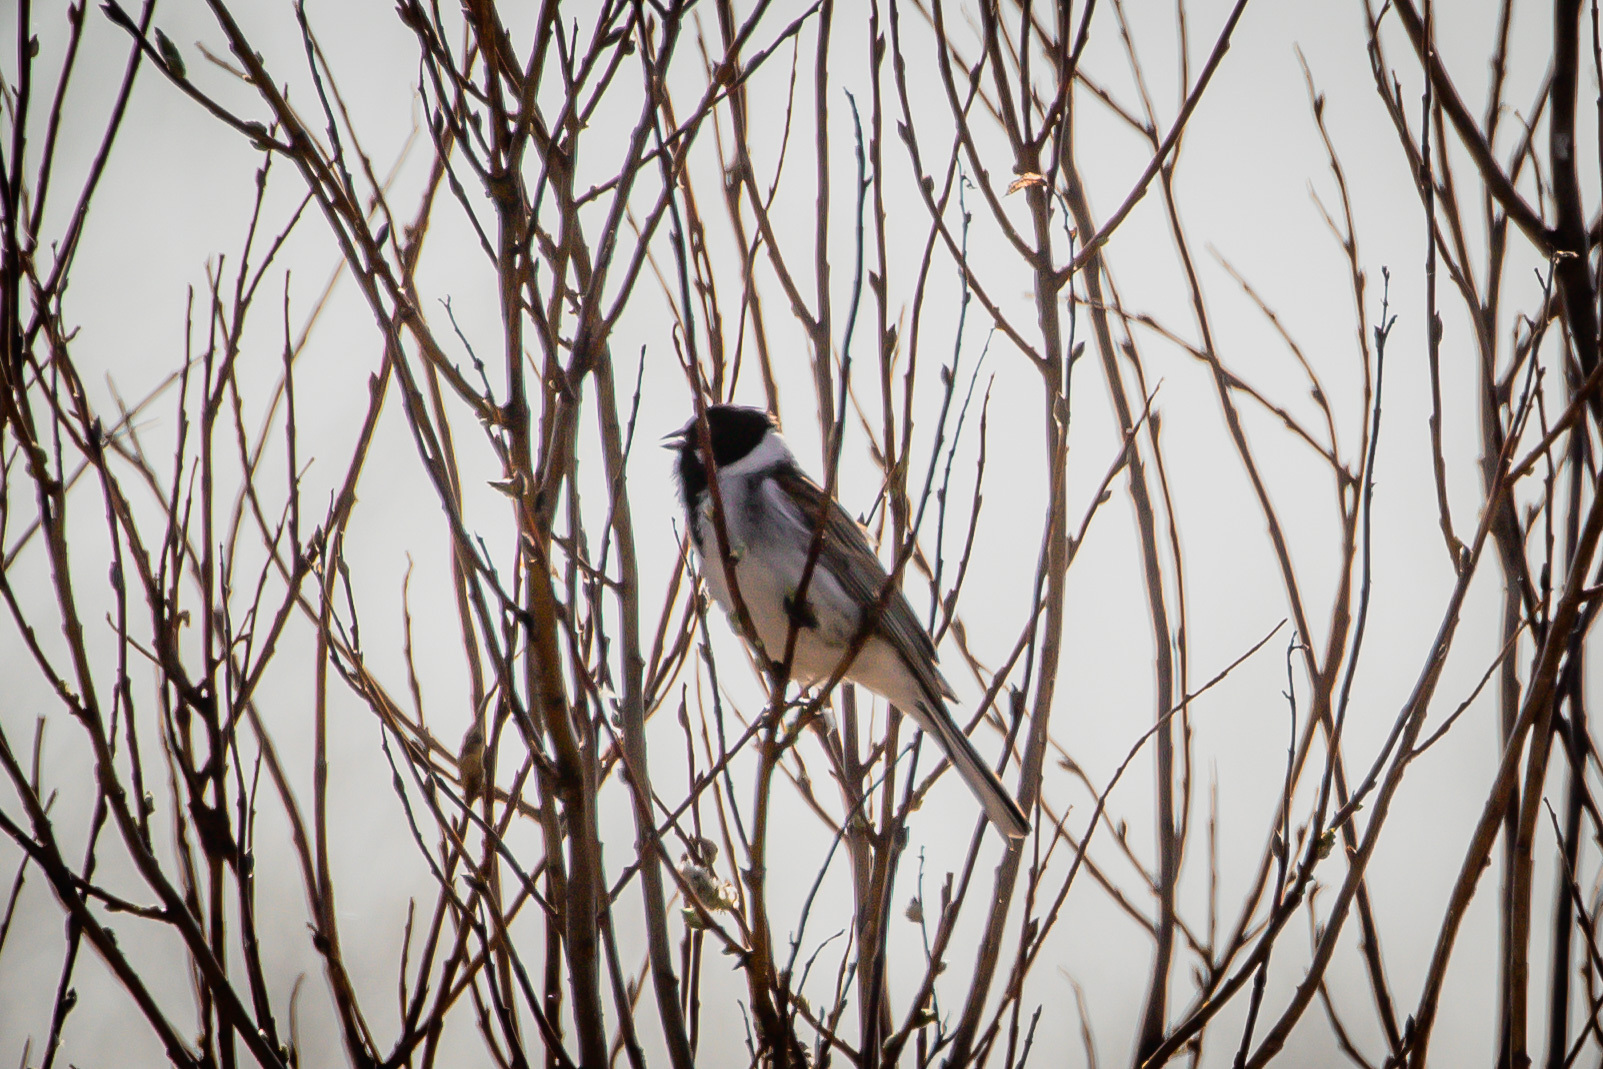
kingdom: Animalia
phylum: Chordata
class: Aves
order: Passeriformes
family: Emberizidae
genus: Emberiza
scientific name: Emberiza schoeniclus
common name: Reed bunting
